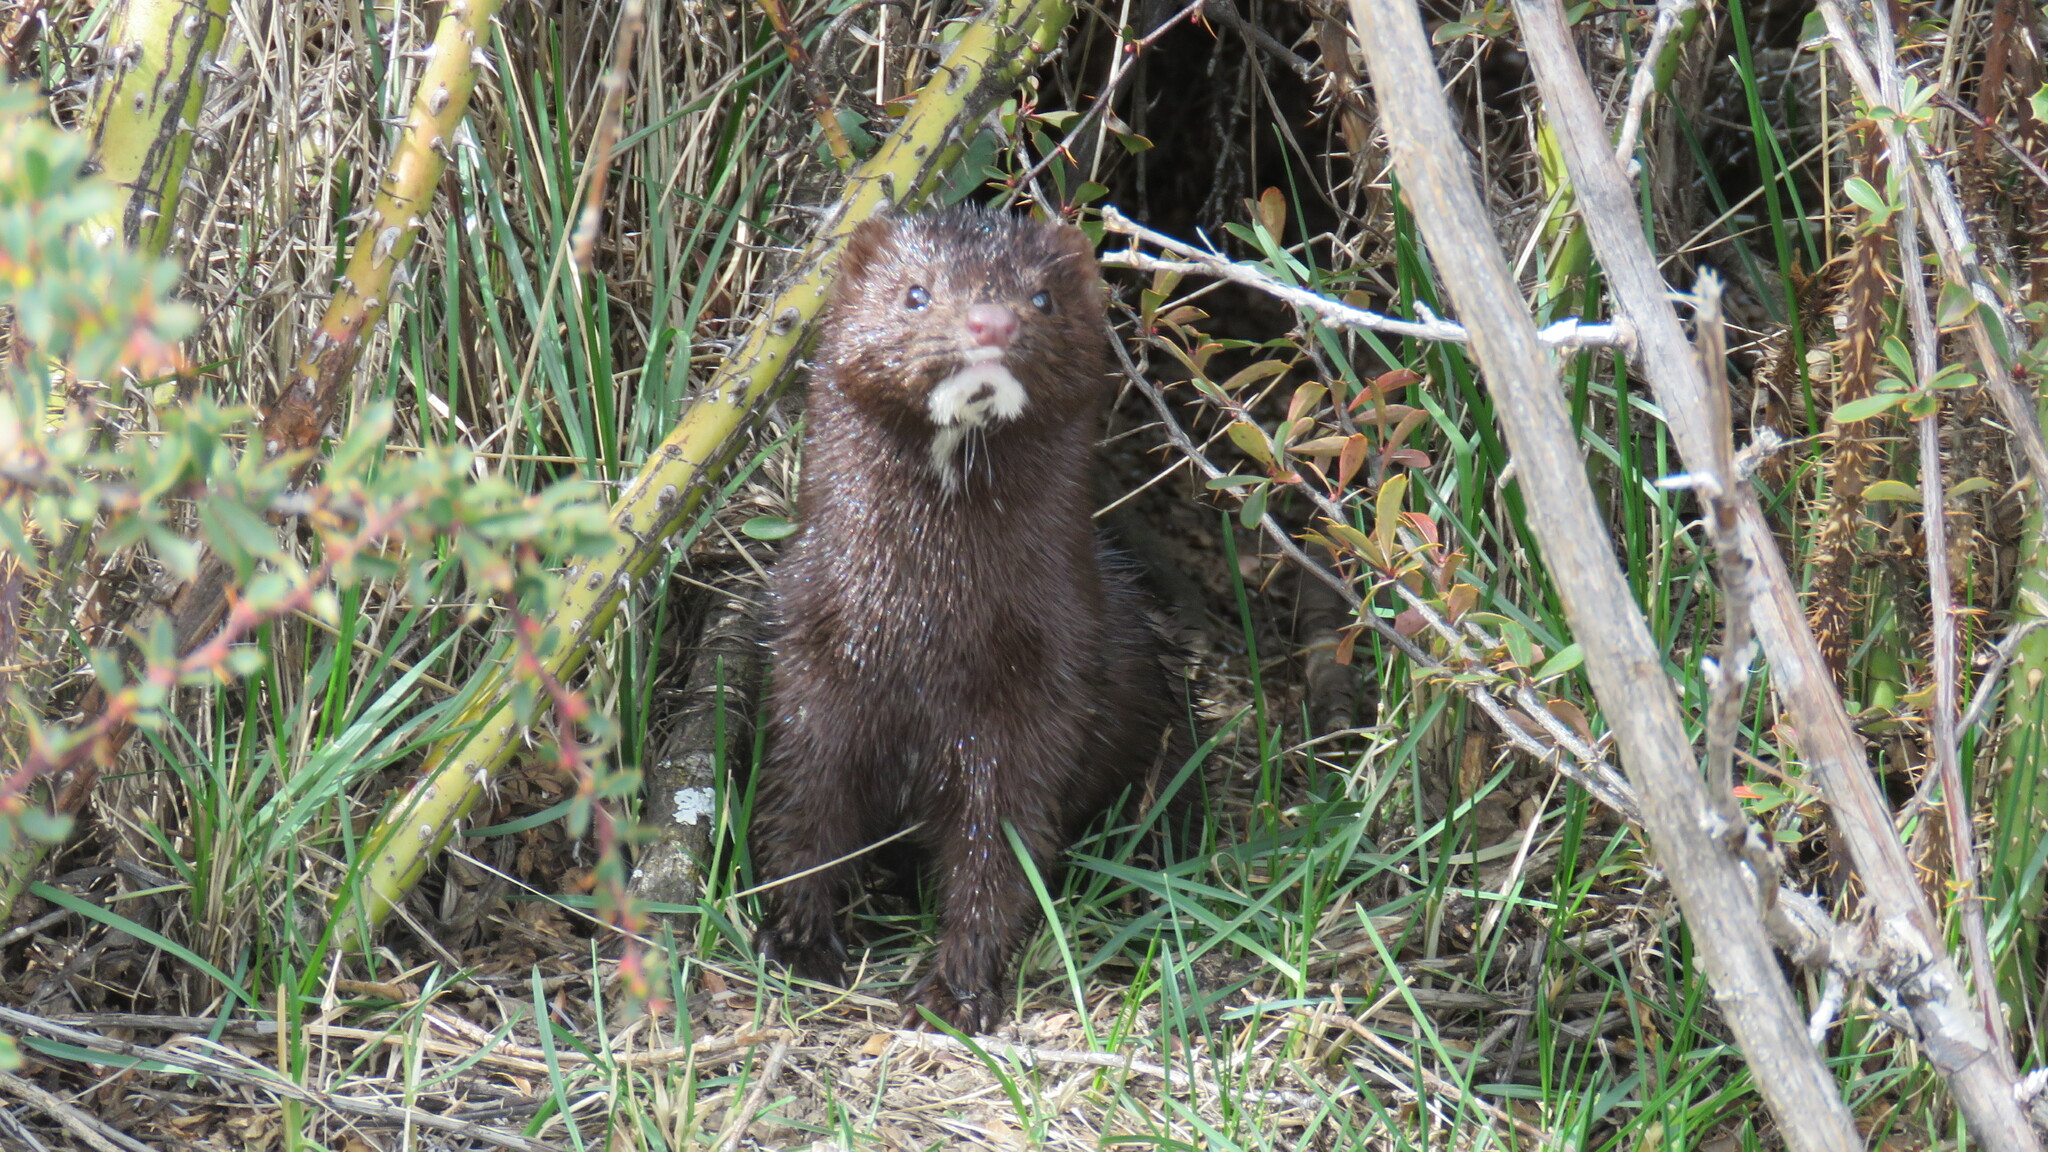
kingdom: Animalia
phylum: Chordata
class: Mammalia
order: Carnivora
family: Mustelidae
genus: Mustela
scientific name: Mustela
